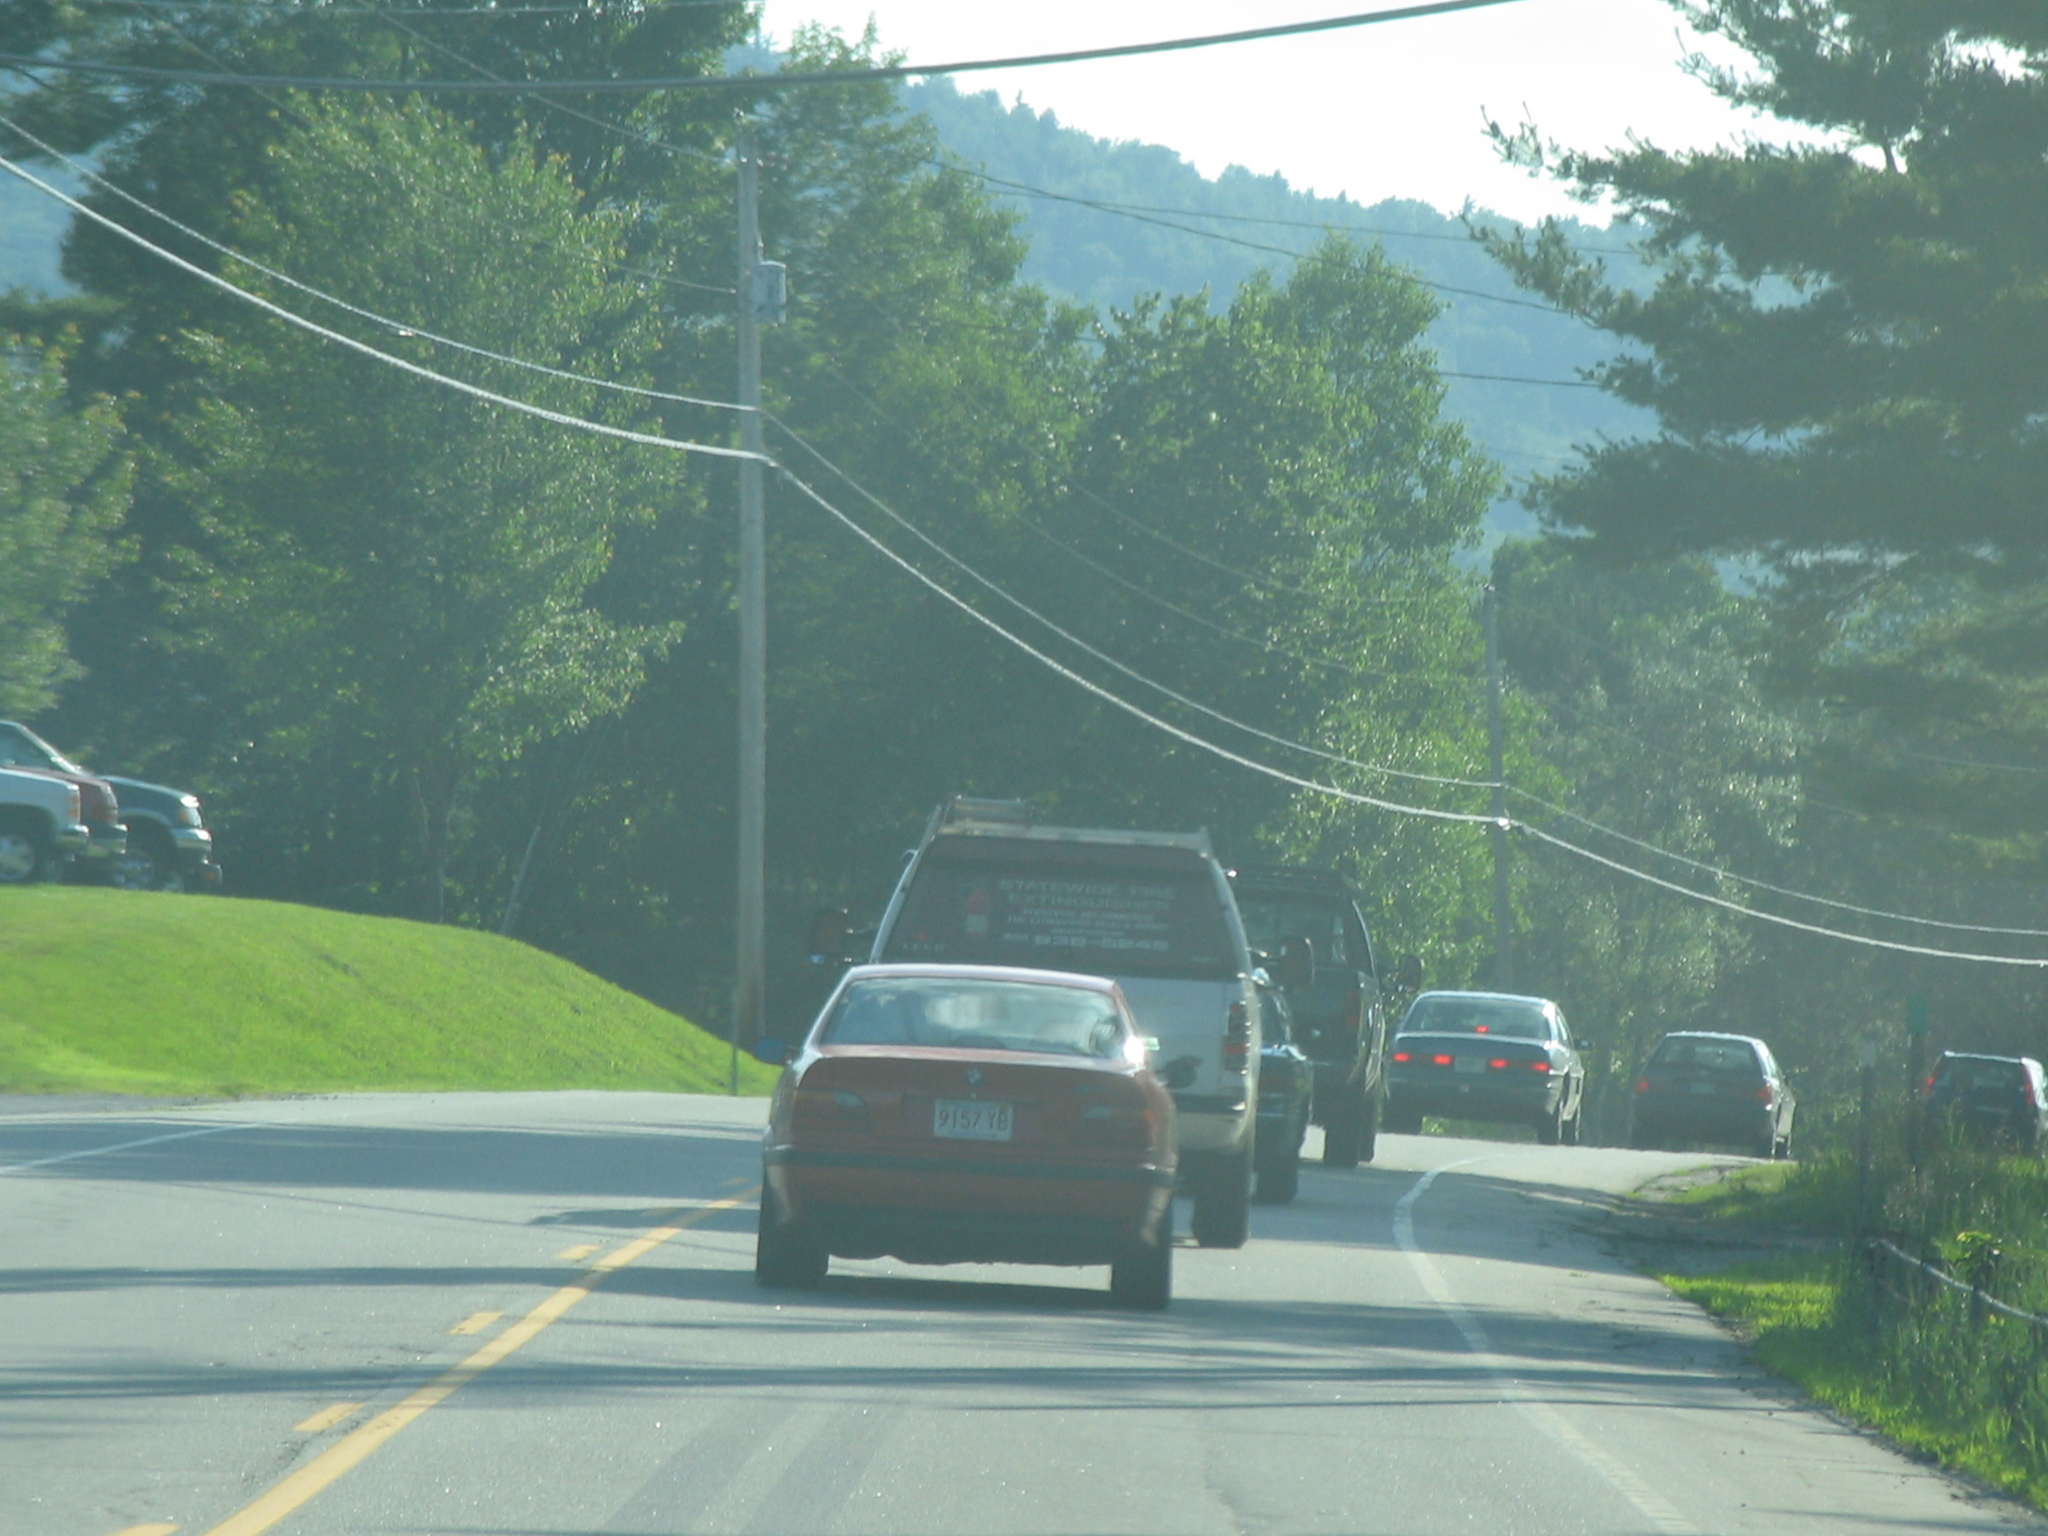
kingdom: Plantae
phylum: Tracheophyta
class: Pinopsida
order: Pinales
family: Pinaceae
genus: Pinus
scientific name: Pinus strobus
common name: Weymouth pine
